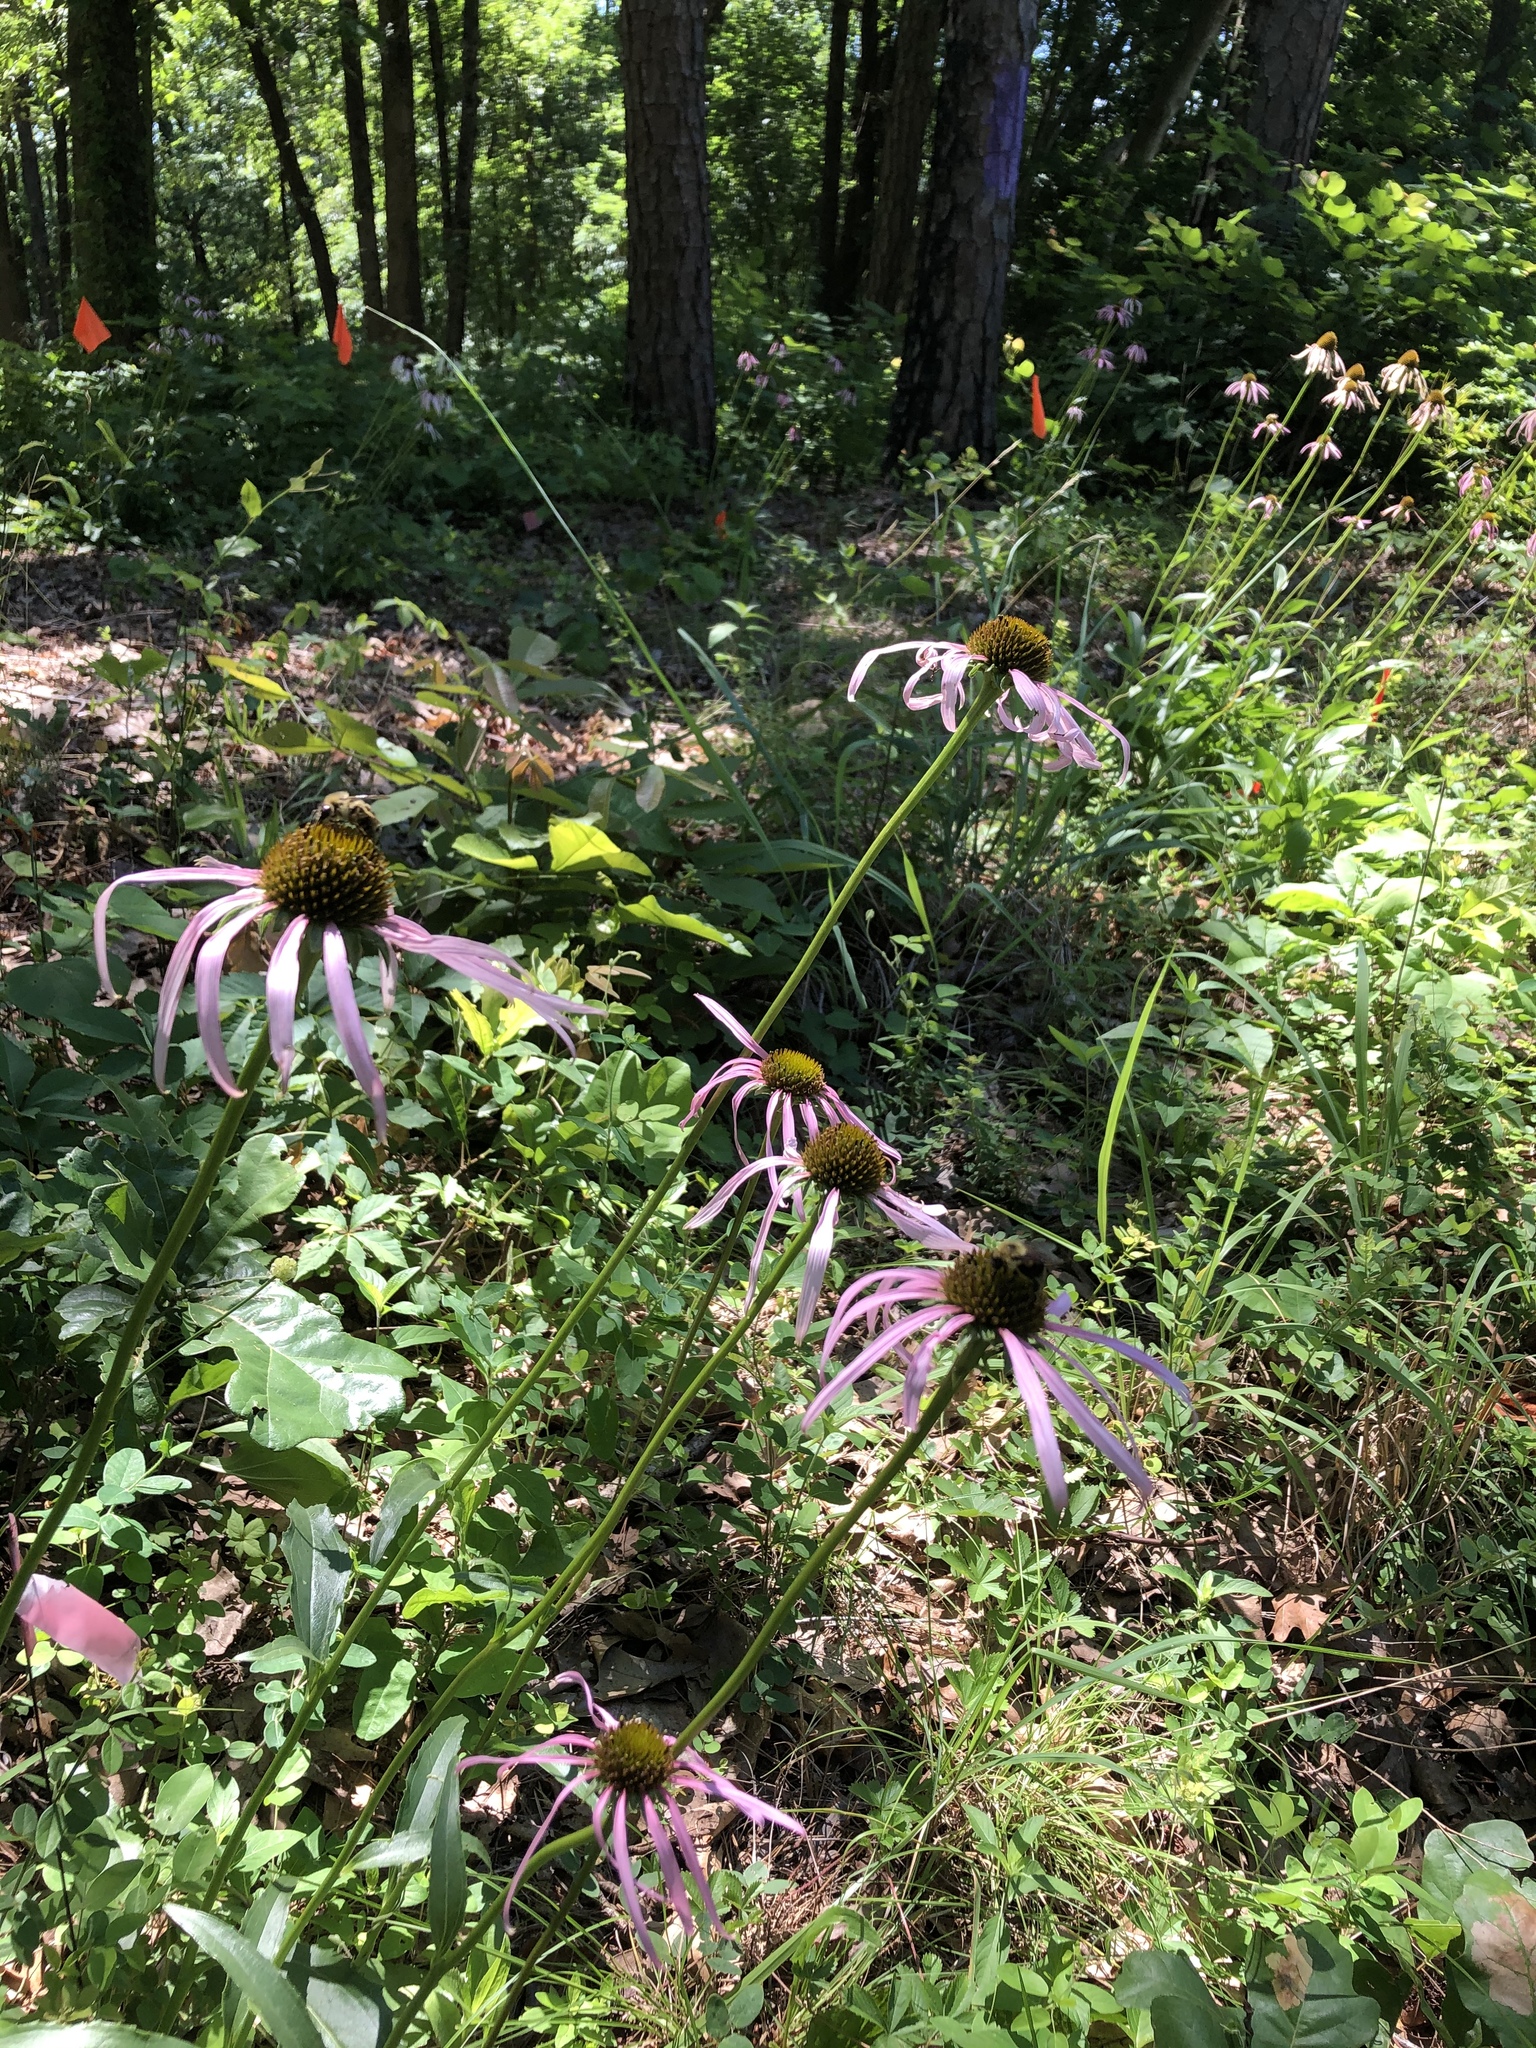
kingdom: Plantae
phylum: Tracheophyta
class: Magnoliopsida
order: Asterales
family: Asteraceae
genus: Echinacea
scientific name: Echinacea laevigata
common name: Smooth coneflower
